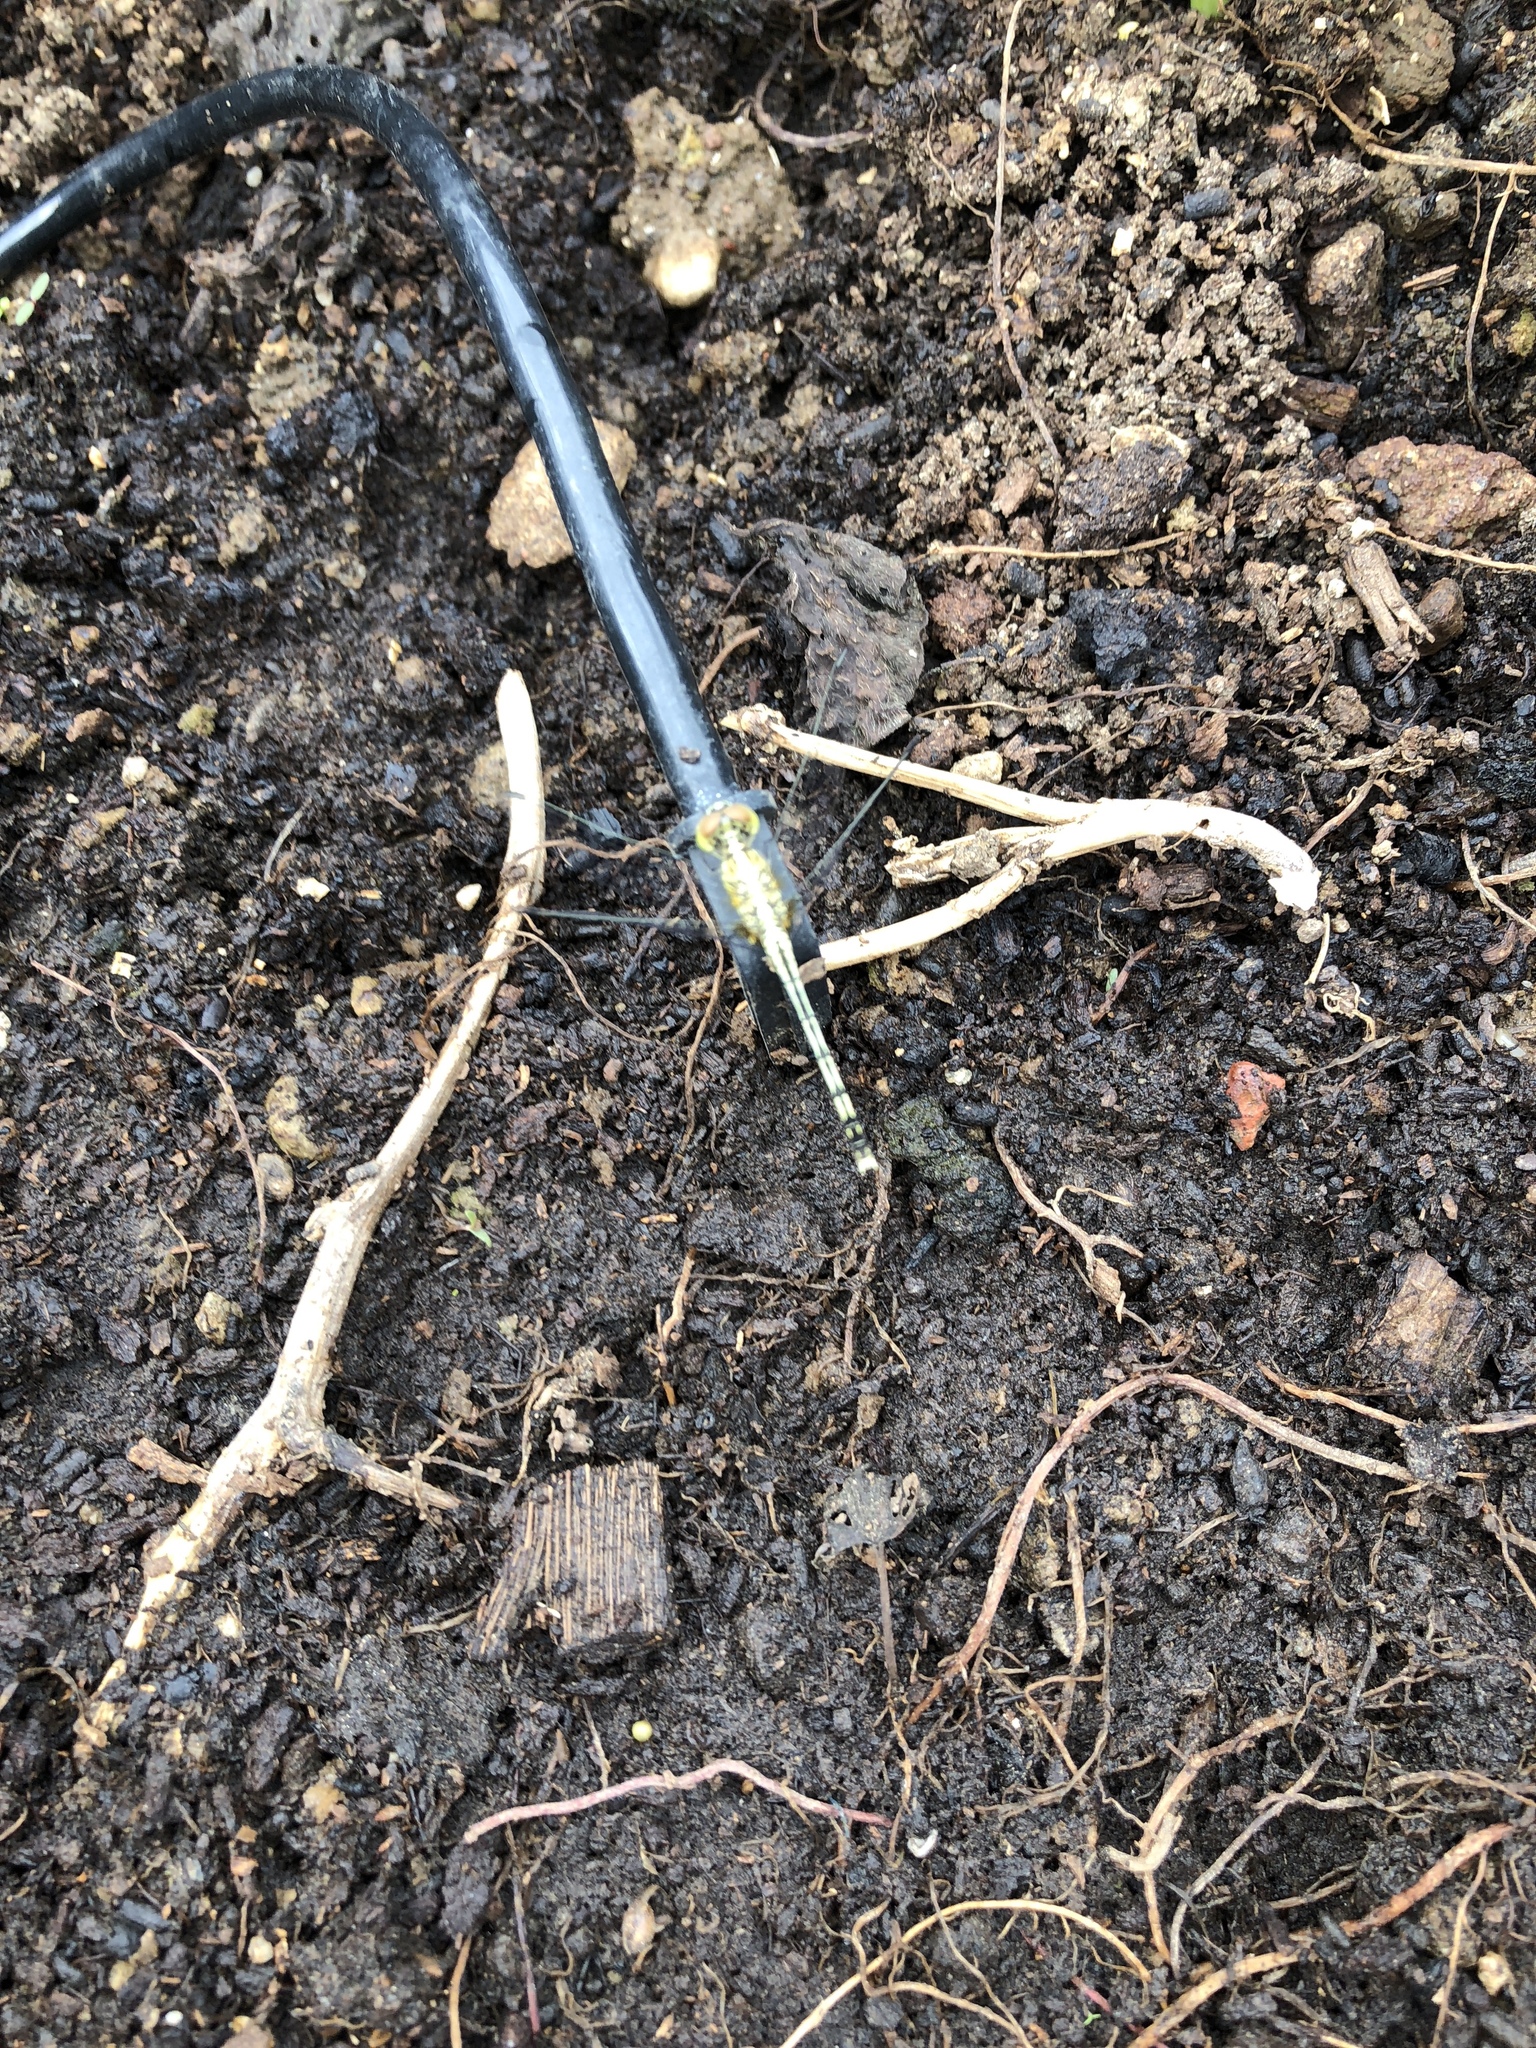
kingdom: Animalia
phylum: Arthropoda
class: Insecta
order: Odonata
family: Libellulidae
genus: Diplacodes
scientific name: Diplacodes trivialis
